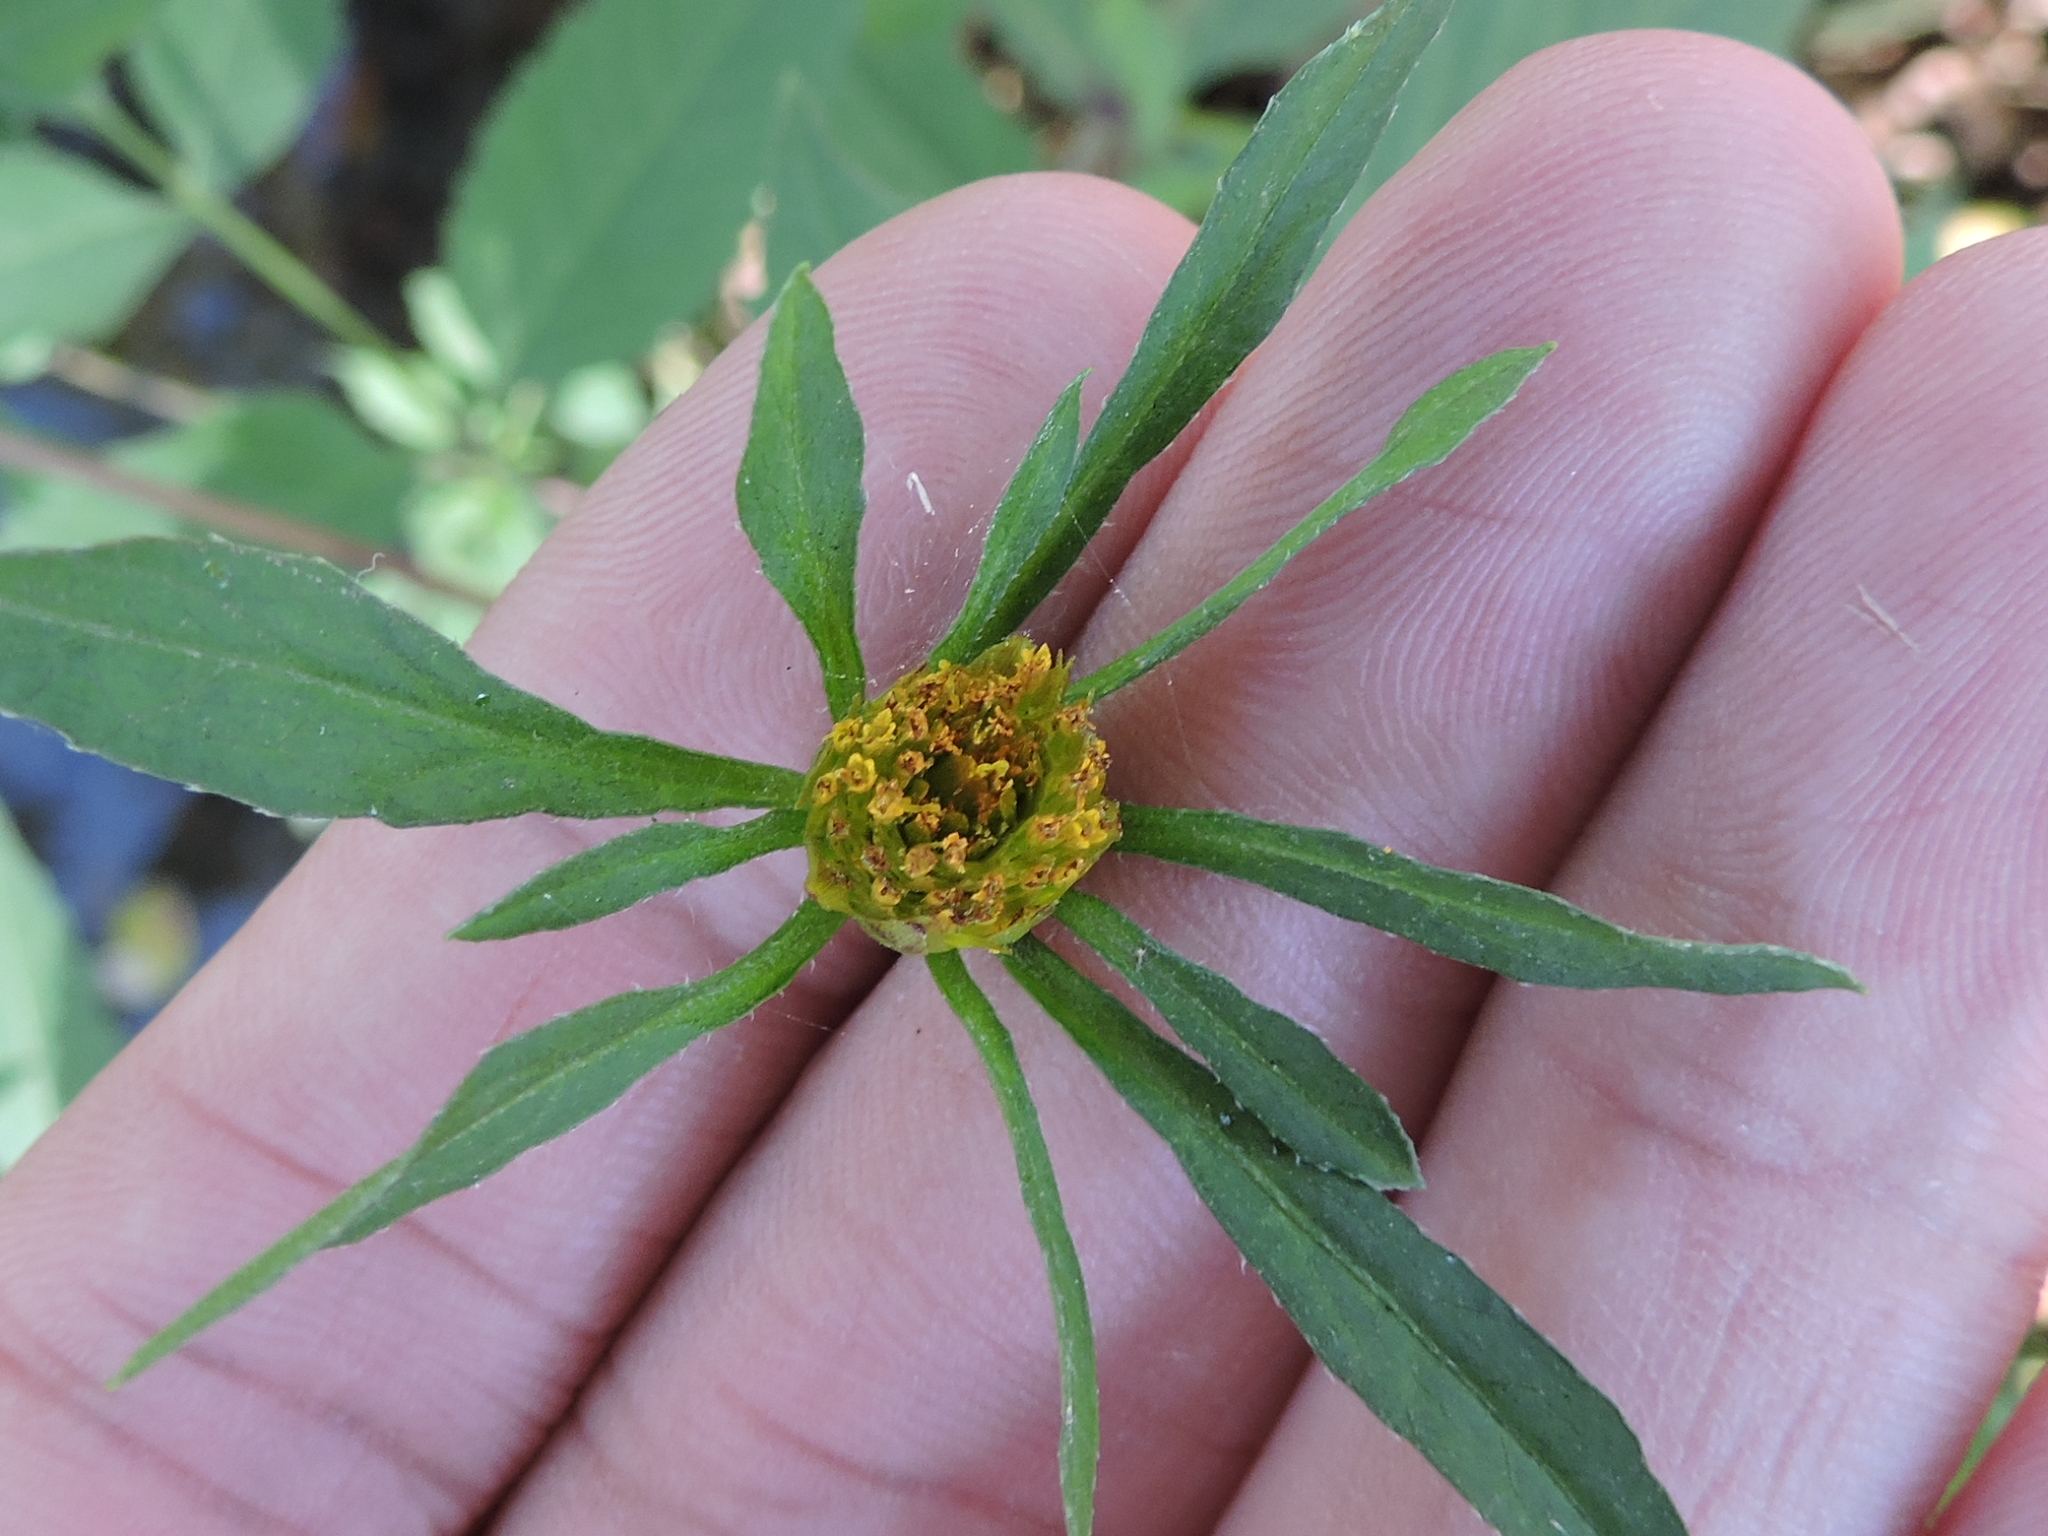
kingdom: Plantae
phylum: Tracheophyta
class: Magnoliopsida
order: Asterales
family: Asteraceae
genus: Bidens
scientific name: Bidens frondosa
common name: Beggarticks
